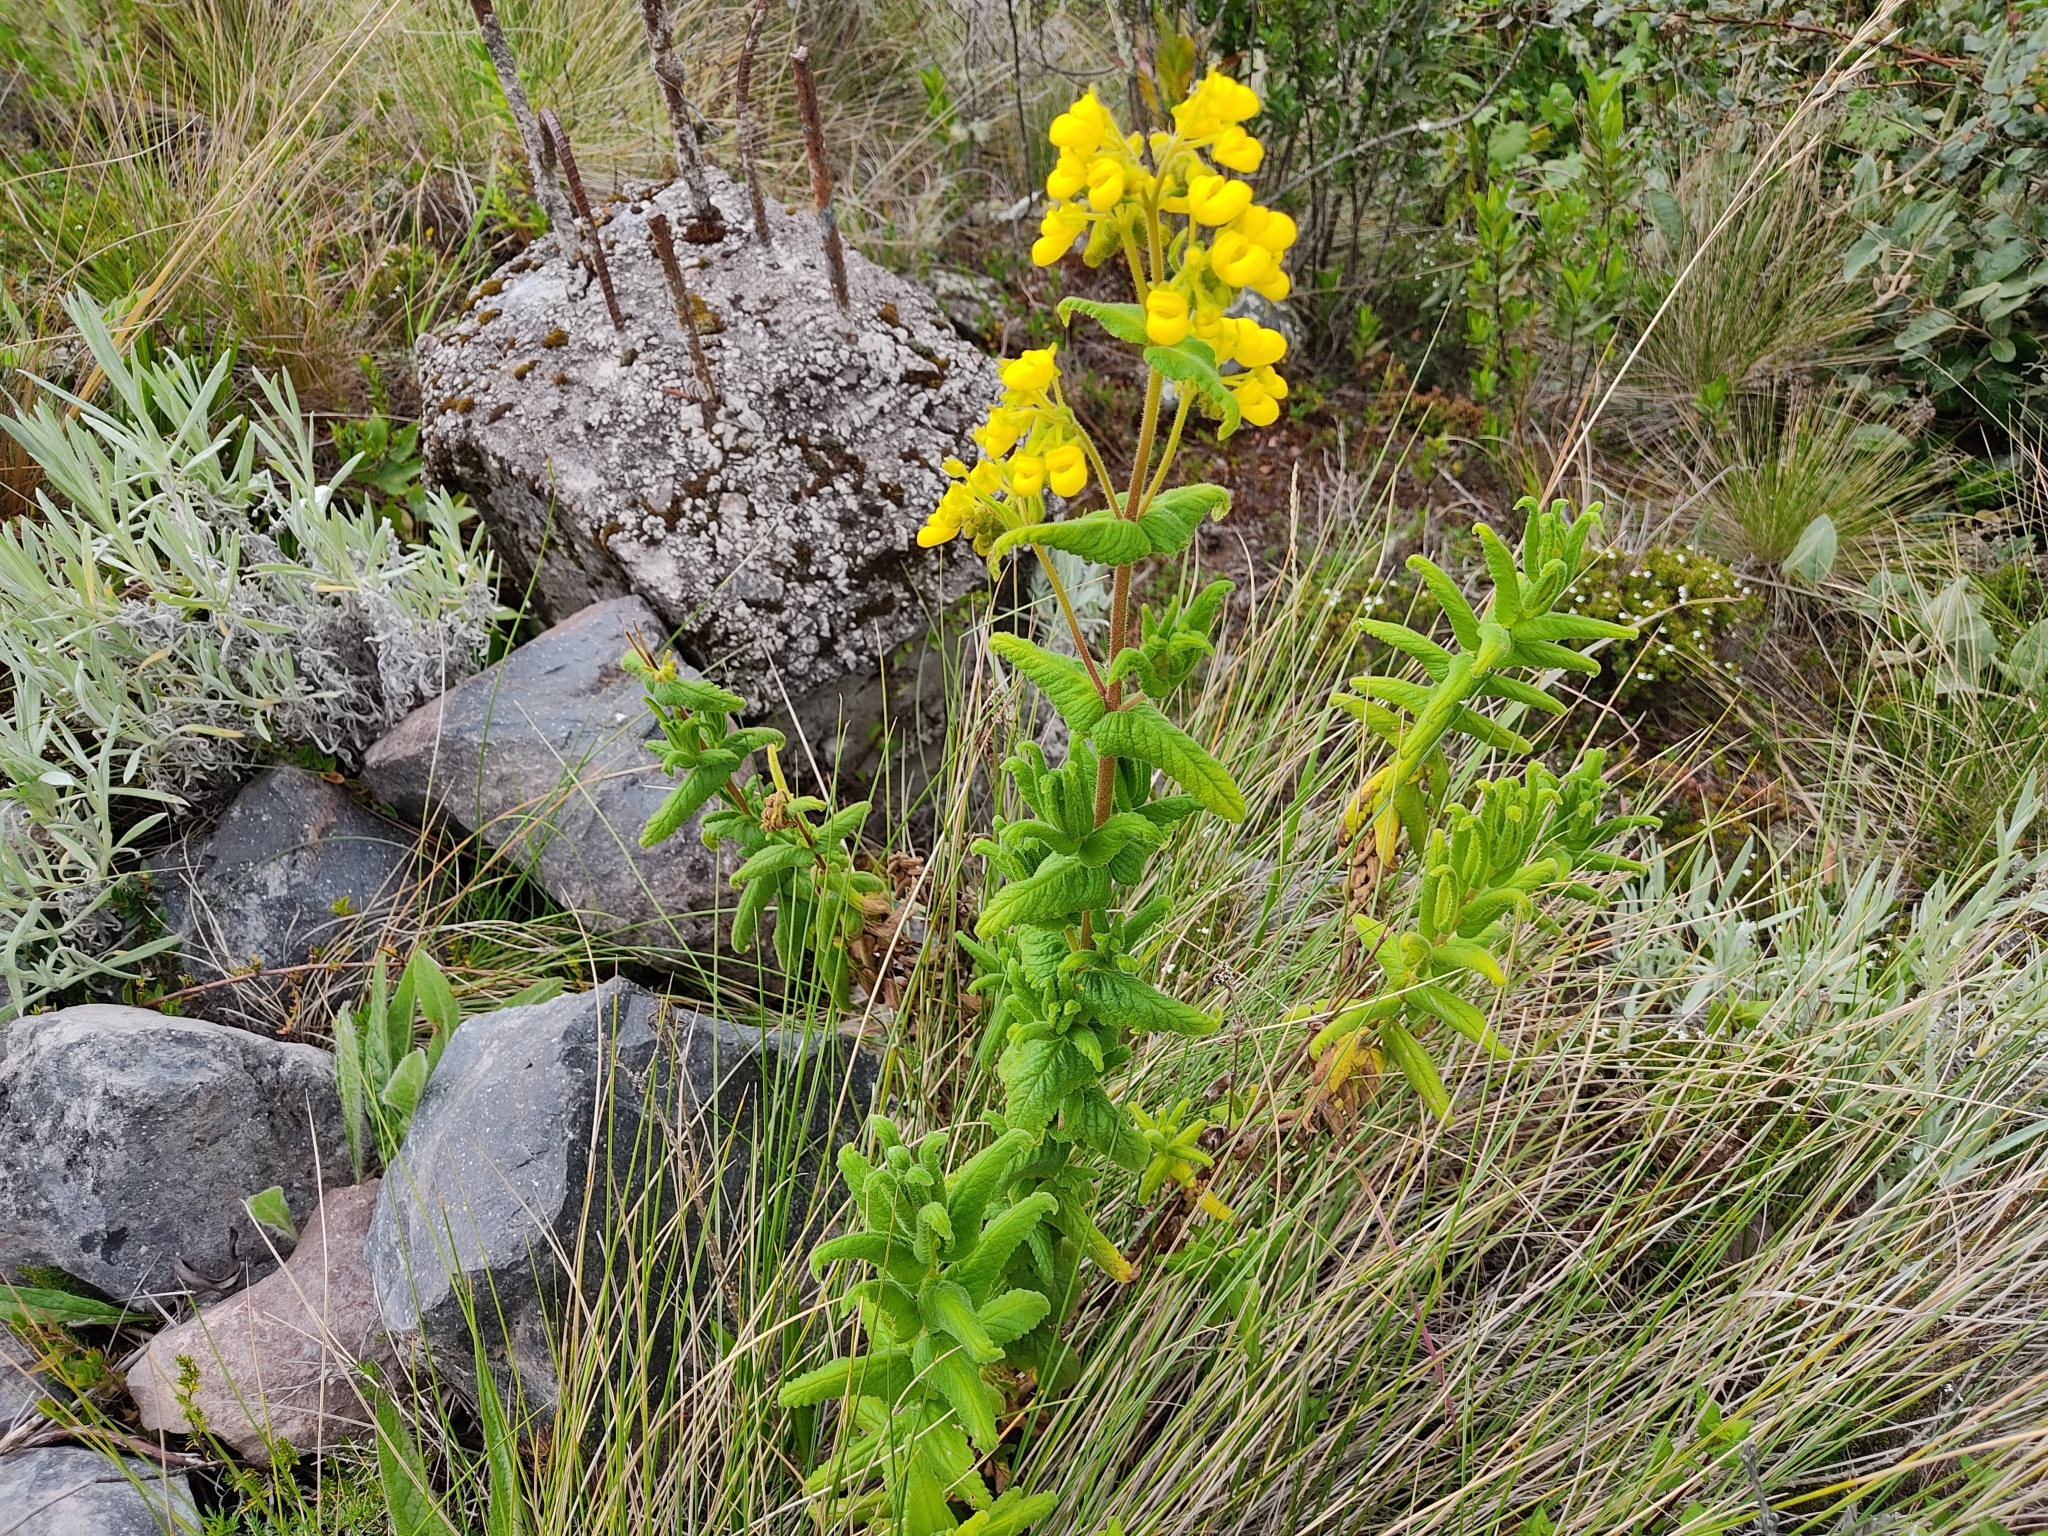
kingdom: Plantae
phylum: Tracheophyta
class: Magnoliopsida
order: Lamiales
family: Calceolariaceae
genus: Calceolaria
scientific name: Calceolaria crenata
